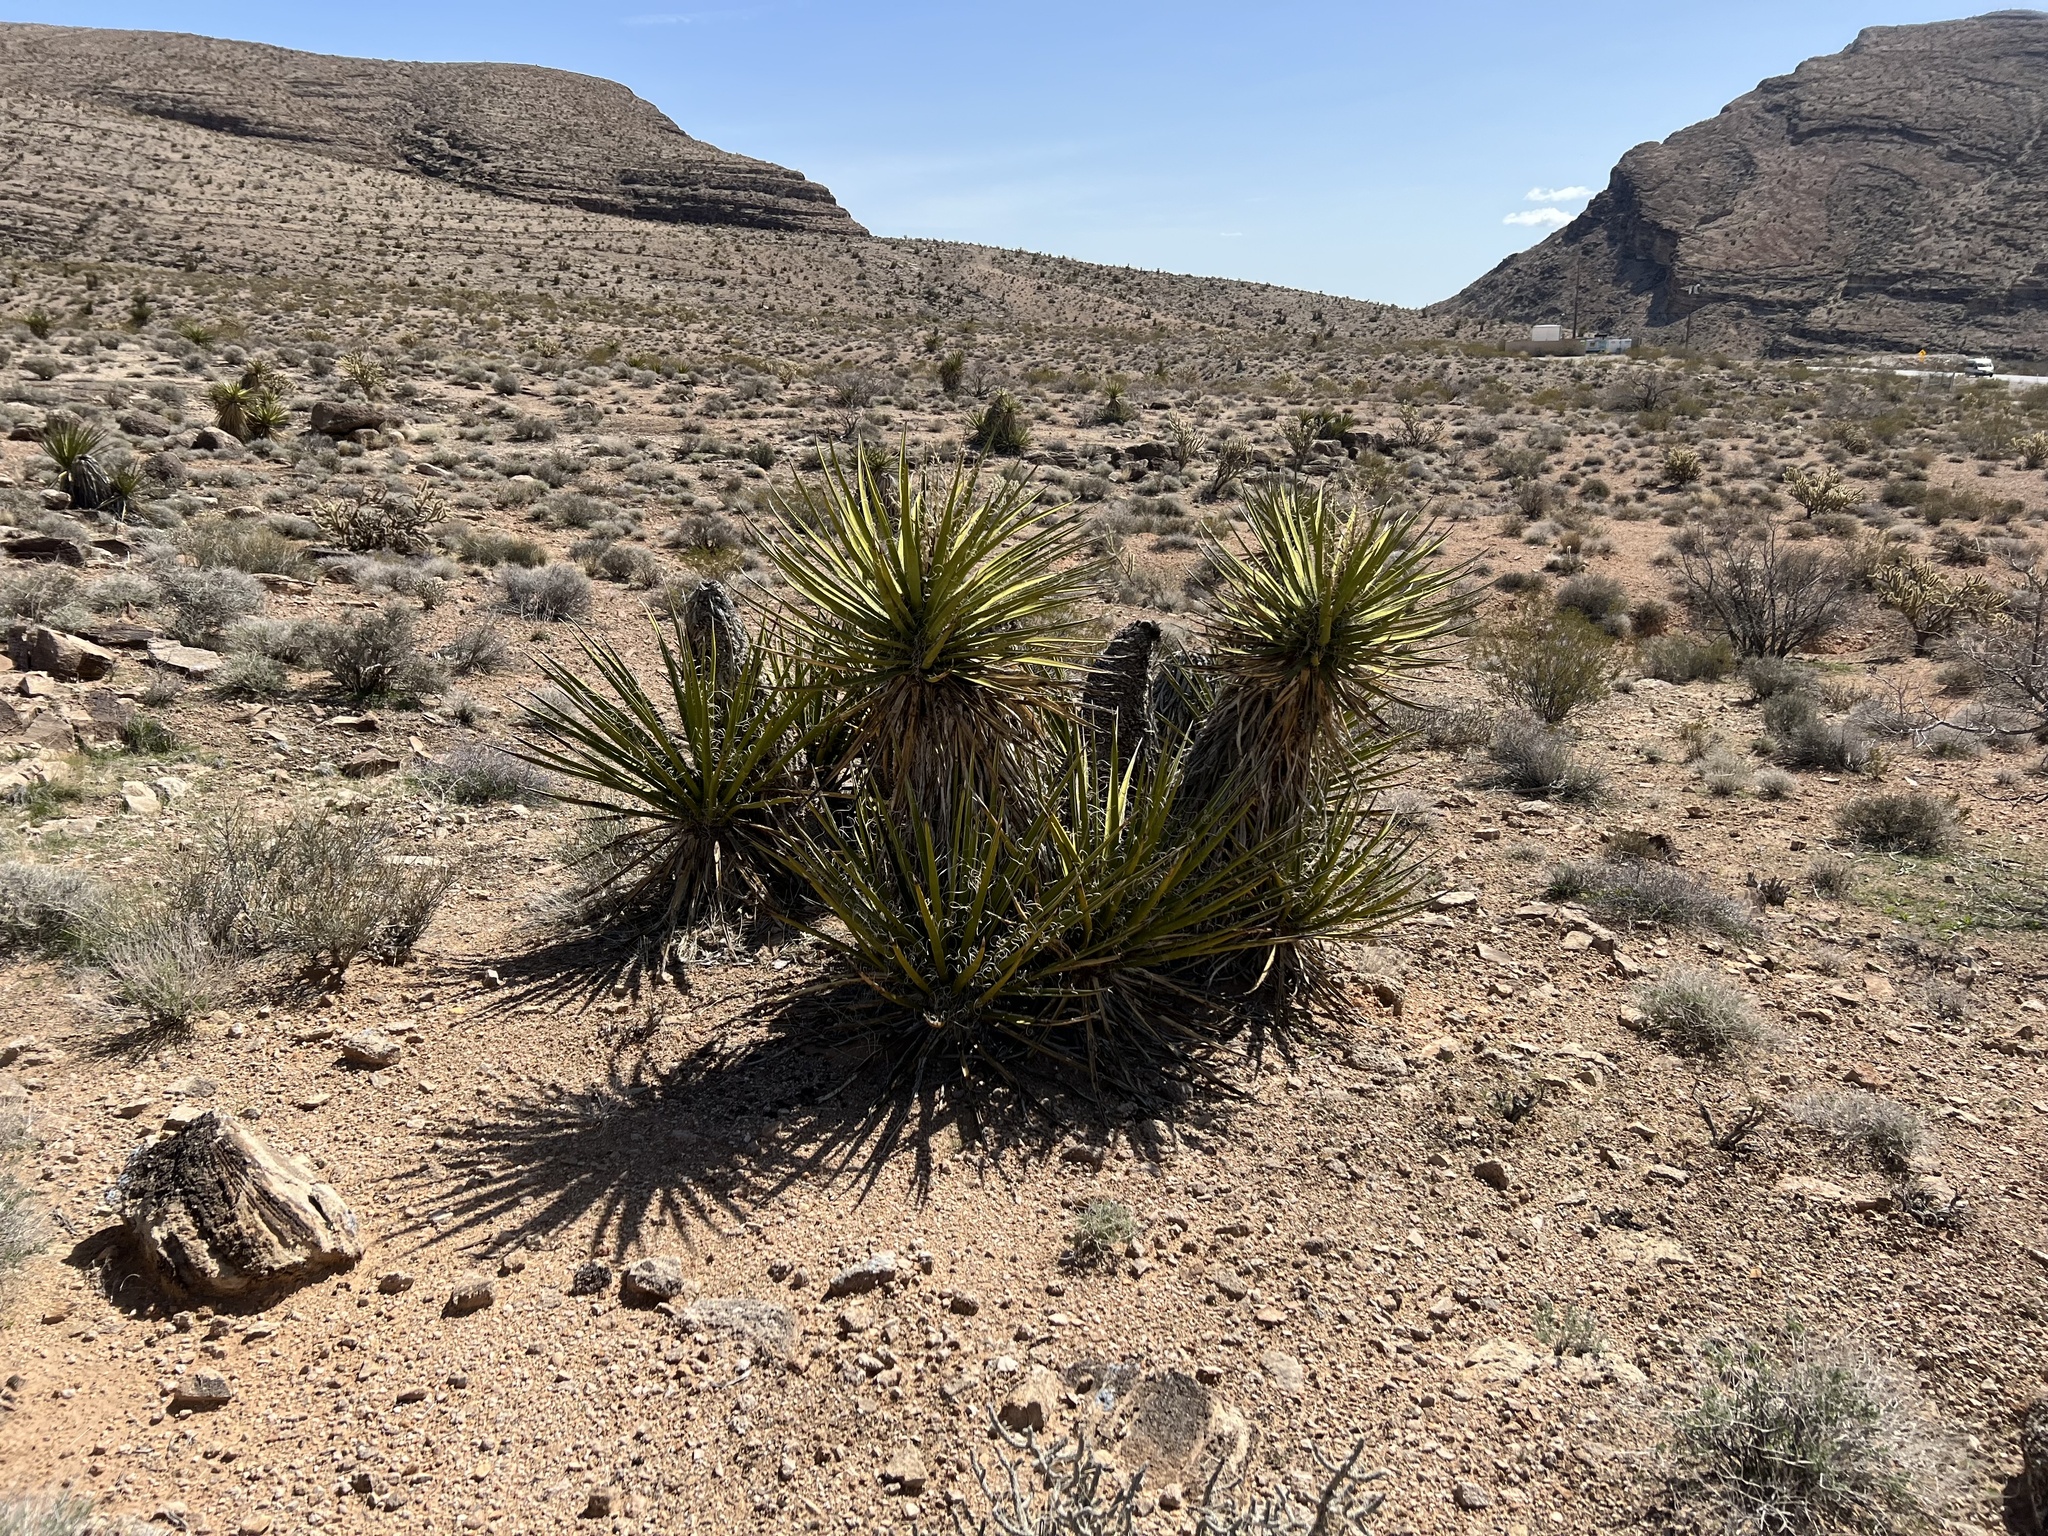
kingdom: Plantae
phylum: Tracheophyta
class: Liliopsida
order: Asparagales
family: Asparagaceae
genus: Yucca
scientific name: Yucca schidigera
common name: Mojave yucca
